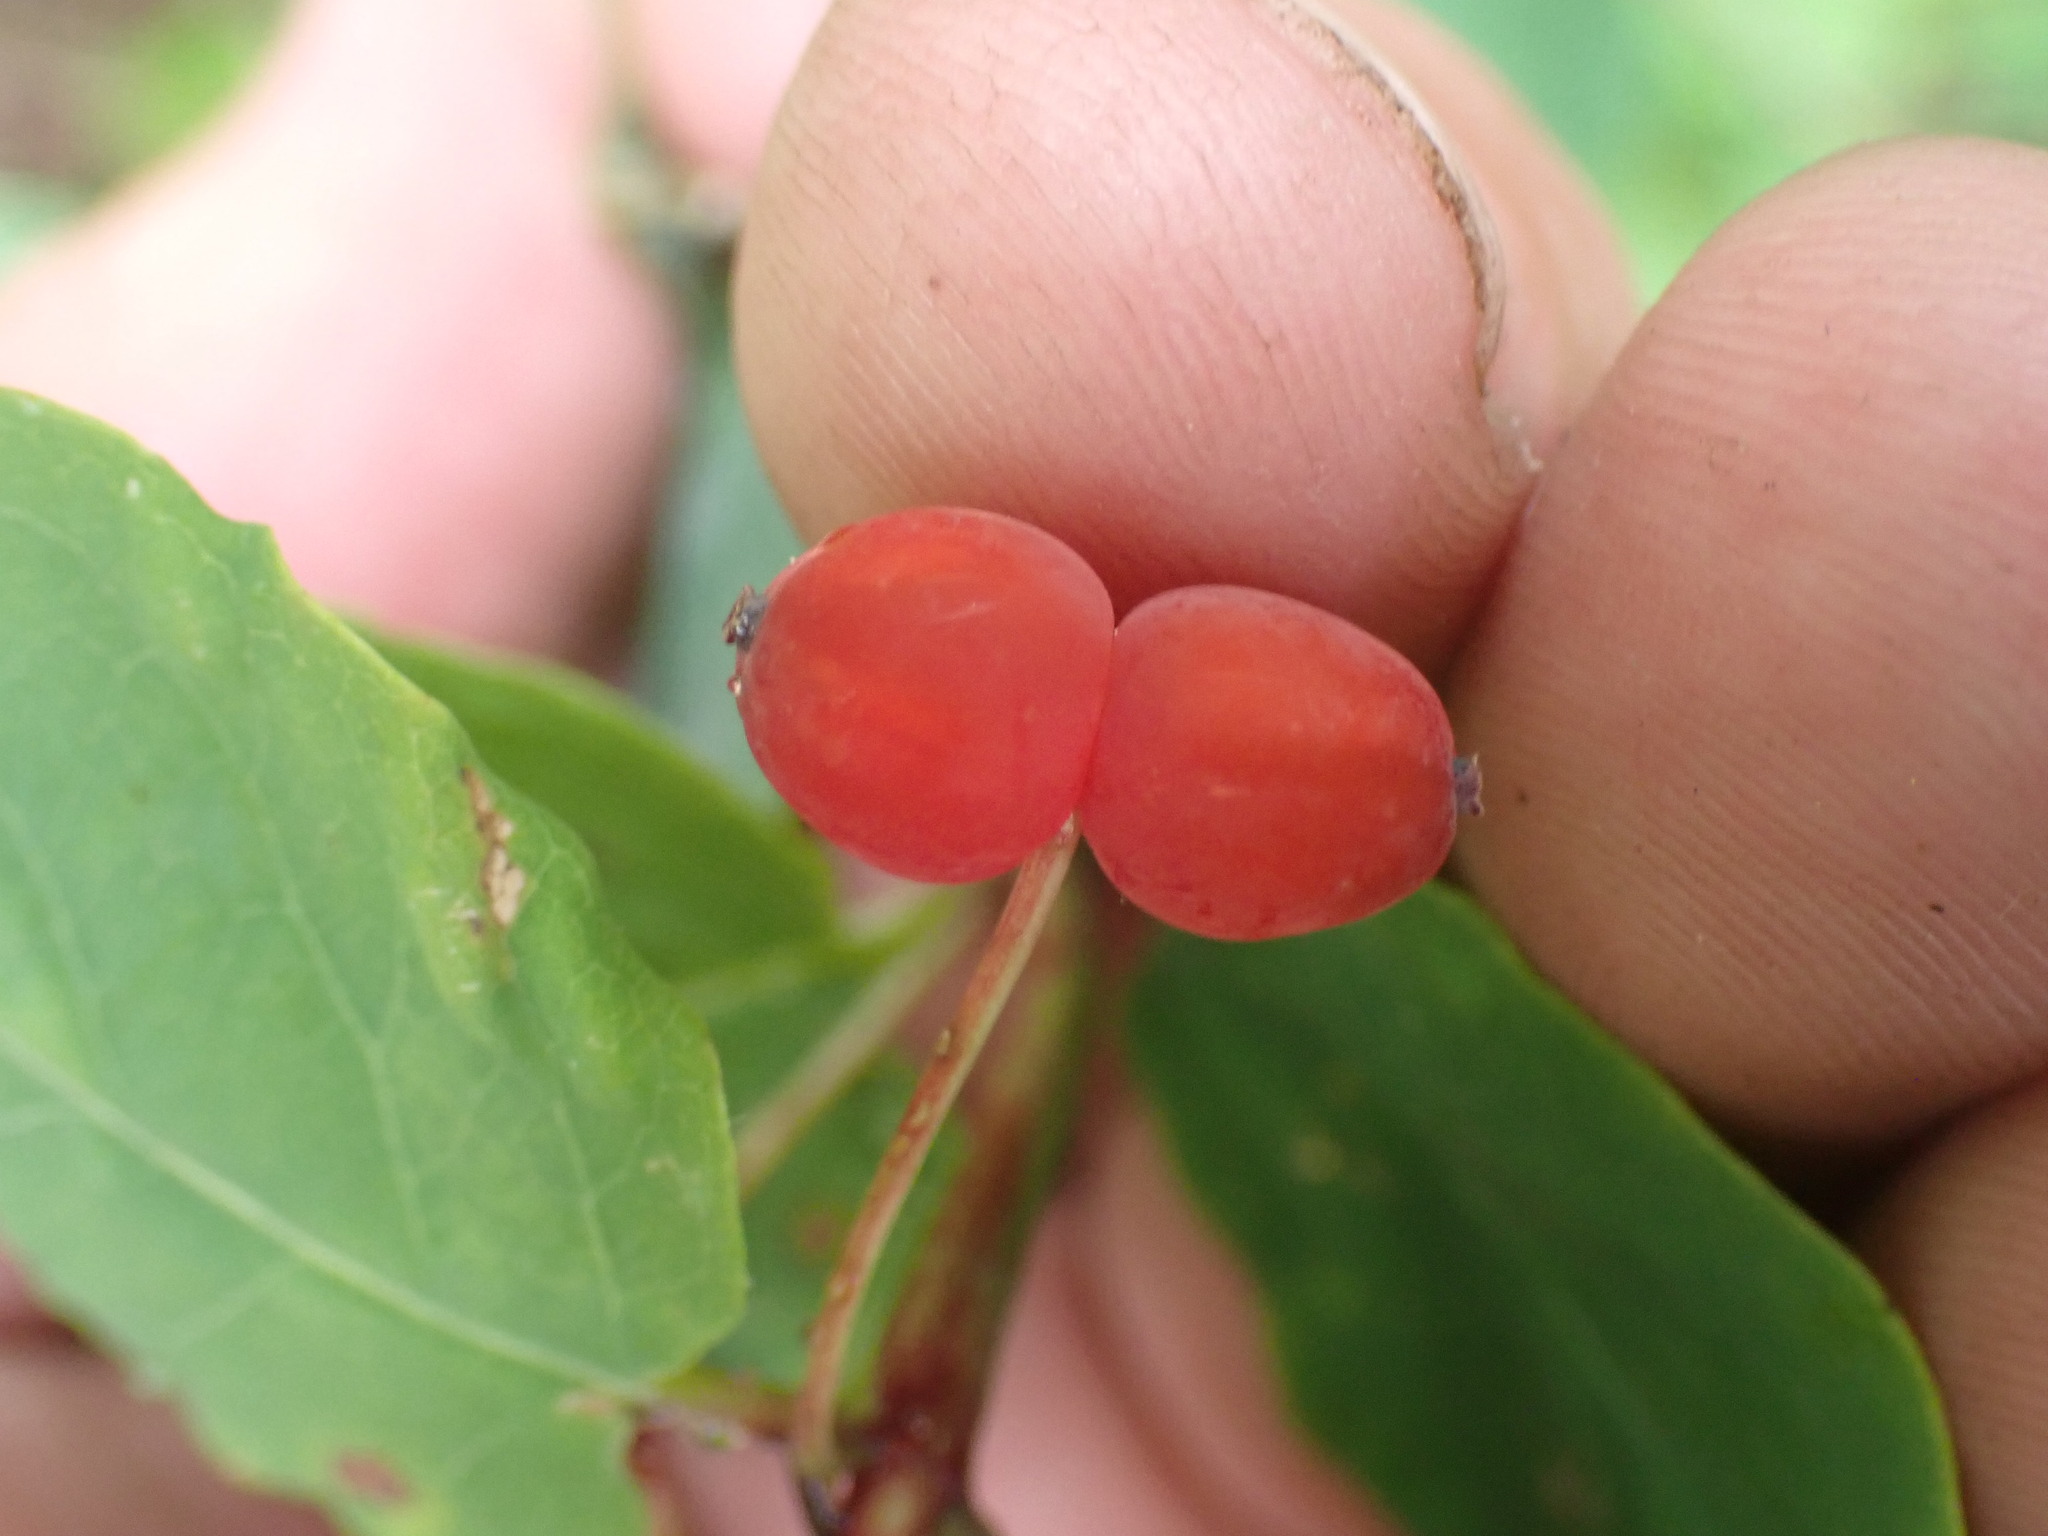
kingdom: Plantae
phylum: Tracheophyta
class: Magnoliopsida
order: Dipsacales
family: Caprifoliaceae
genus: Lonicera
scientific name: Lonicera utahensis
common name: Utah honeysuckle
